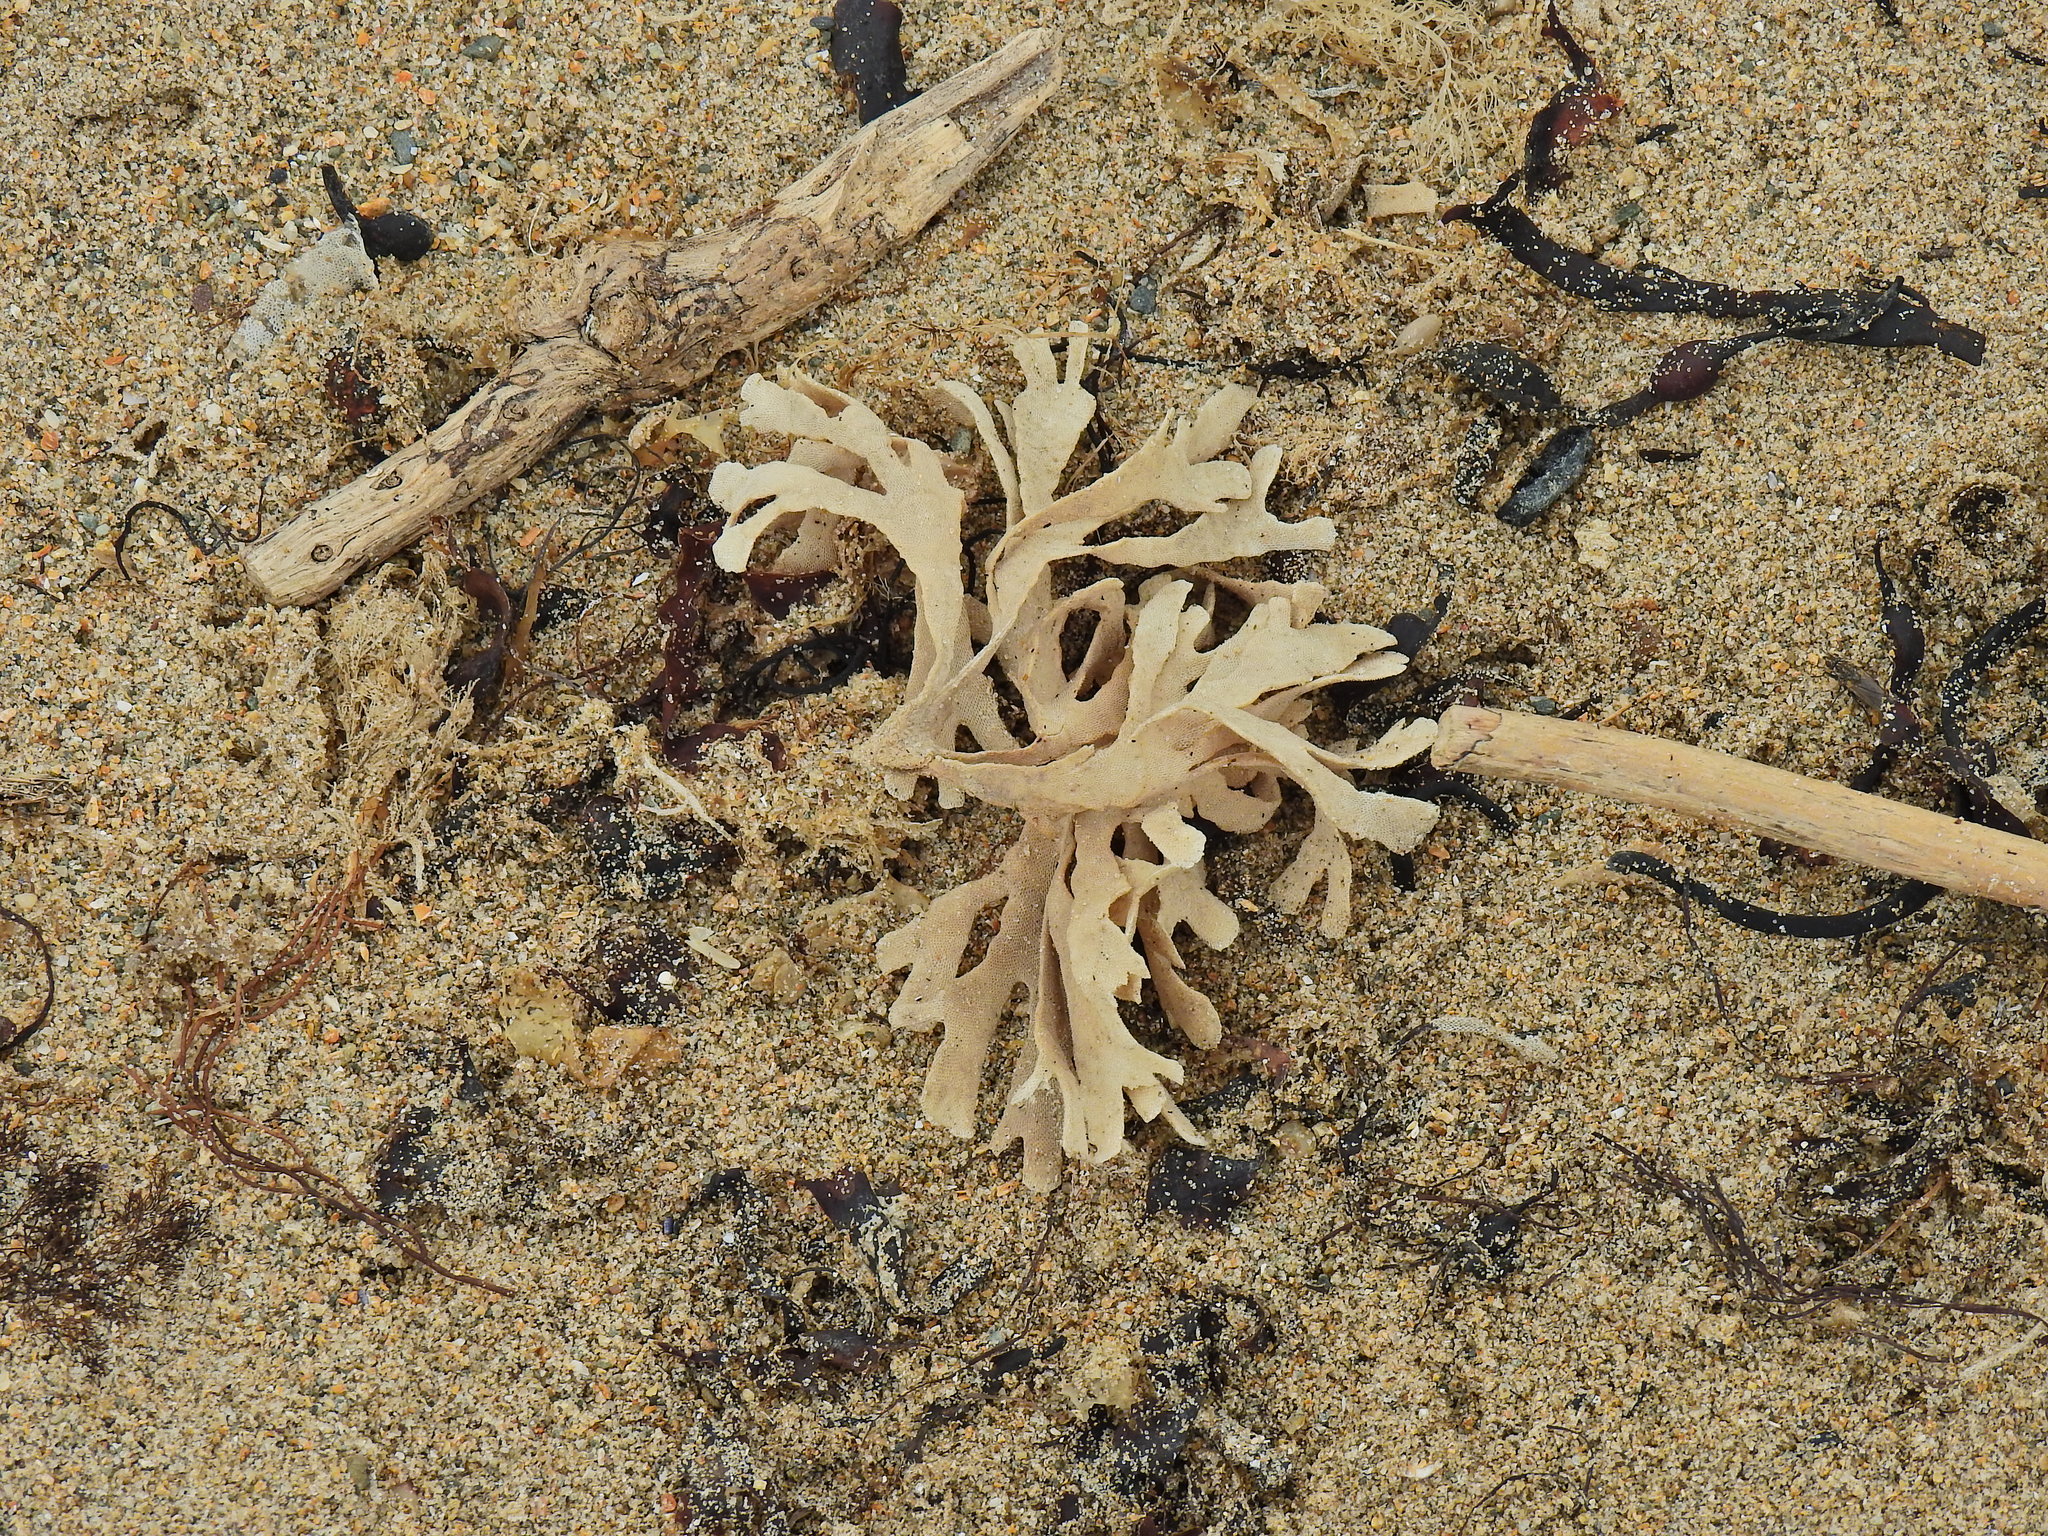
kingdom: Animalia
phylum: Bryozoa
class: Gymnolaemata
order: Cheilostomatida
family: Flustridae
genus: Flustra
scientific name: Flustra foliacea
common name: Hornwrack
